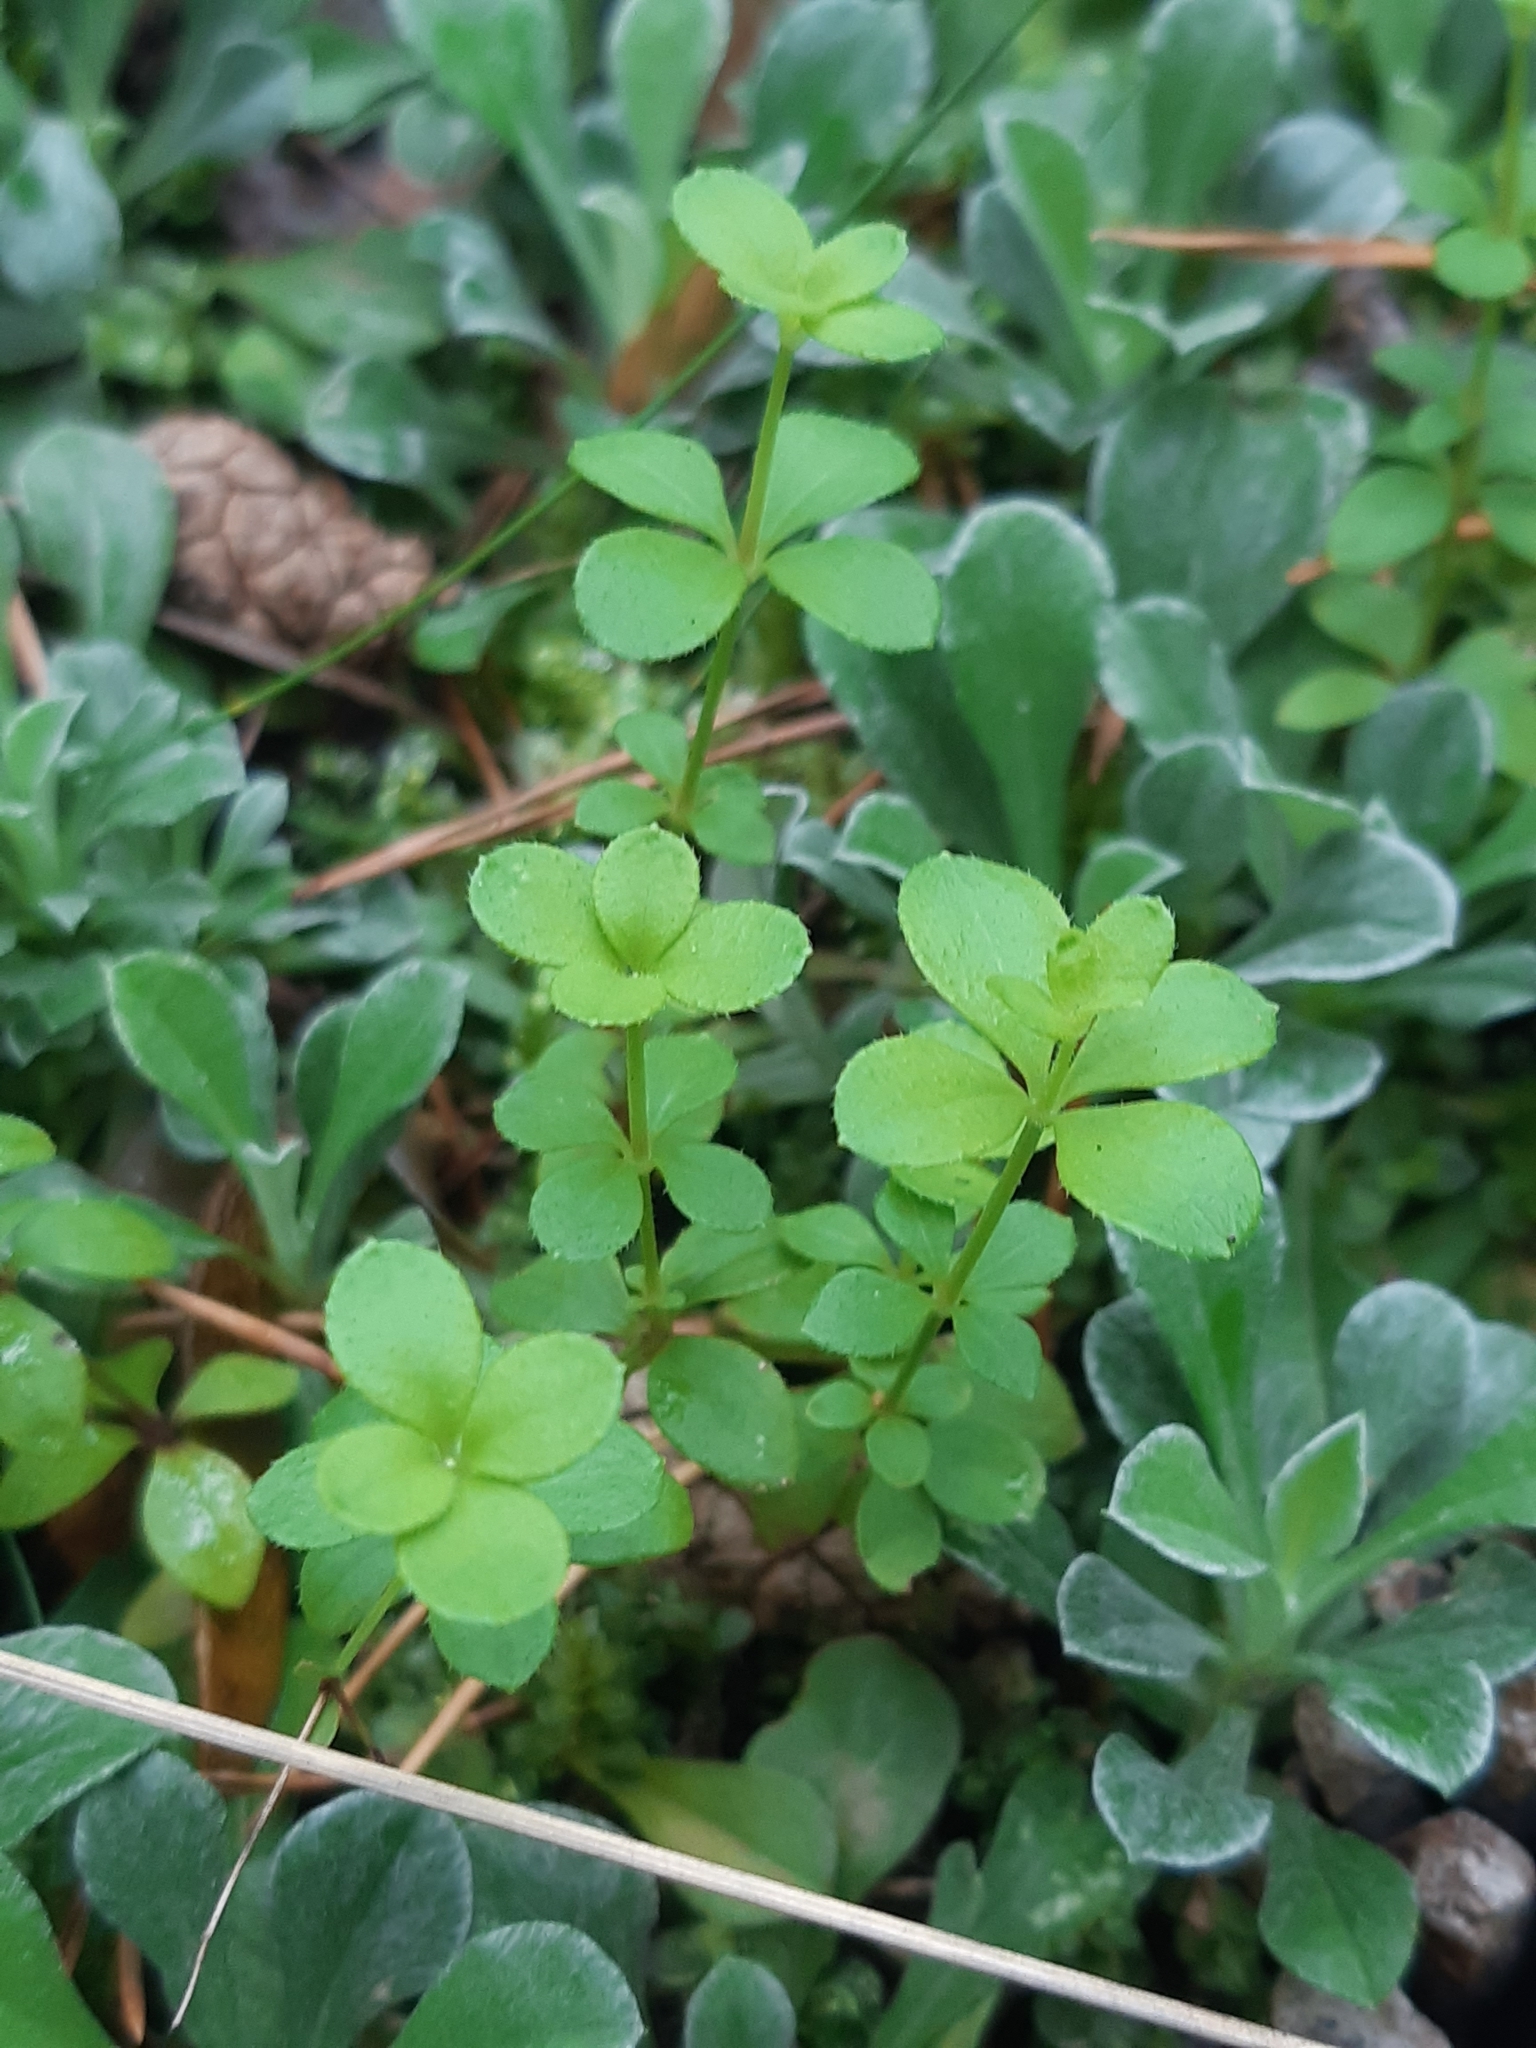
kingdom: Plantae
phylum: Tracheophyta
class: Magnoliopsida
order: Gentianales
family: Rubiaceae
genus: Galium
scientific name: Galium rotundifolium
